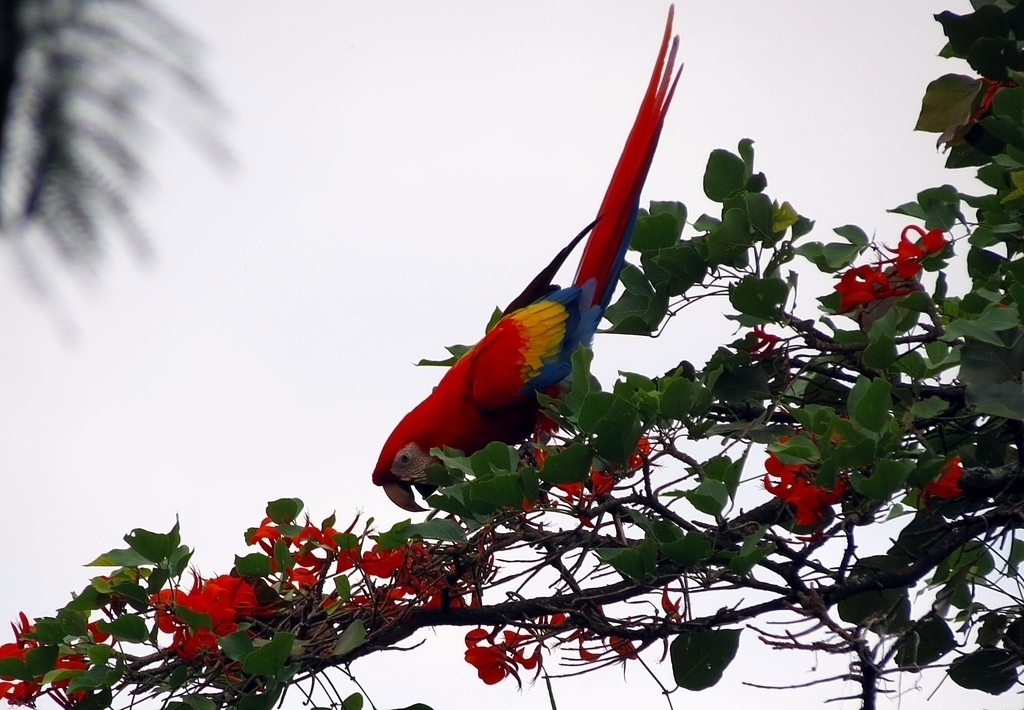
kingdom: Animalia
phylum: Chordata
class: Aves
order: Psittaciformes
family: Psittacidae
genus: Ara
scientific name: Ara macao
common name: Scarlet macaw
